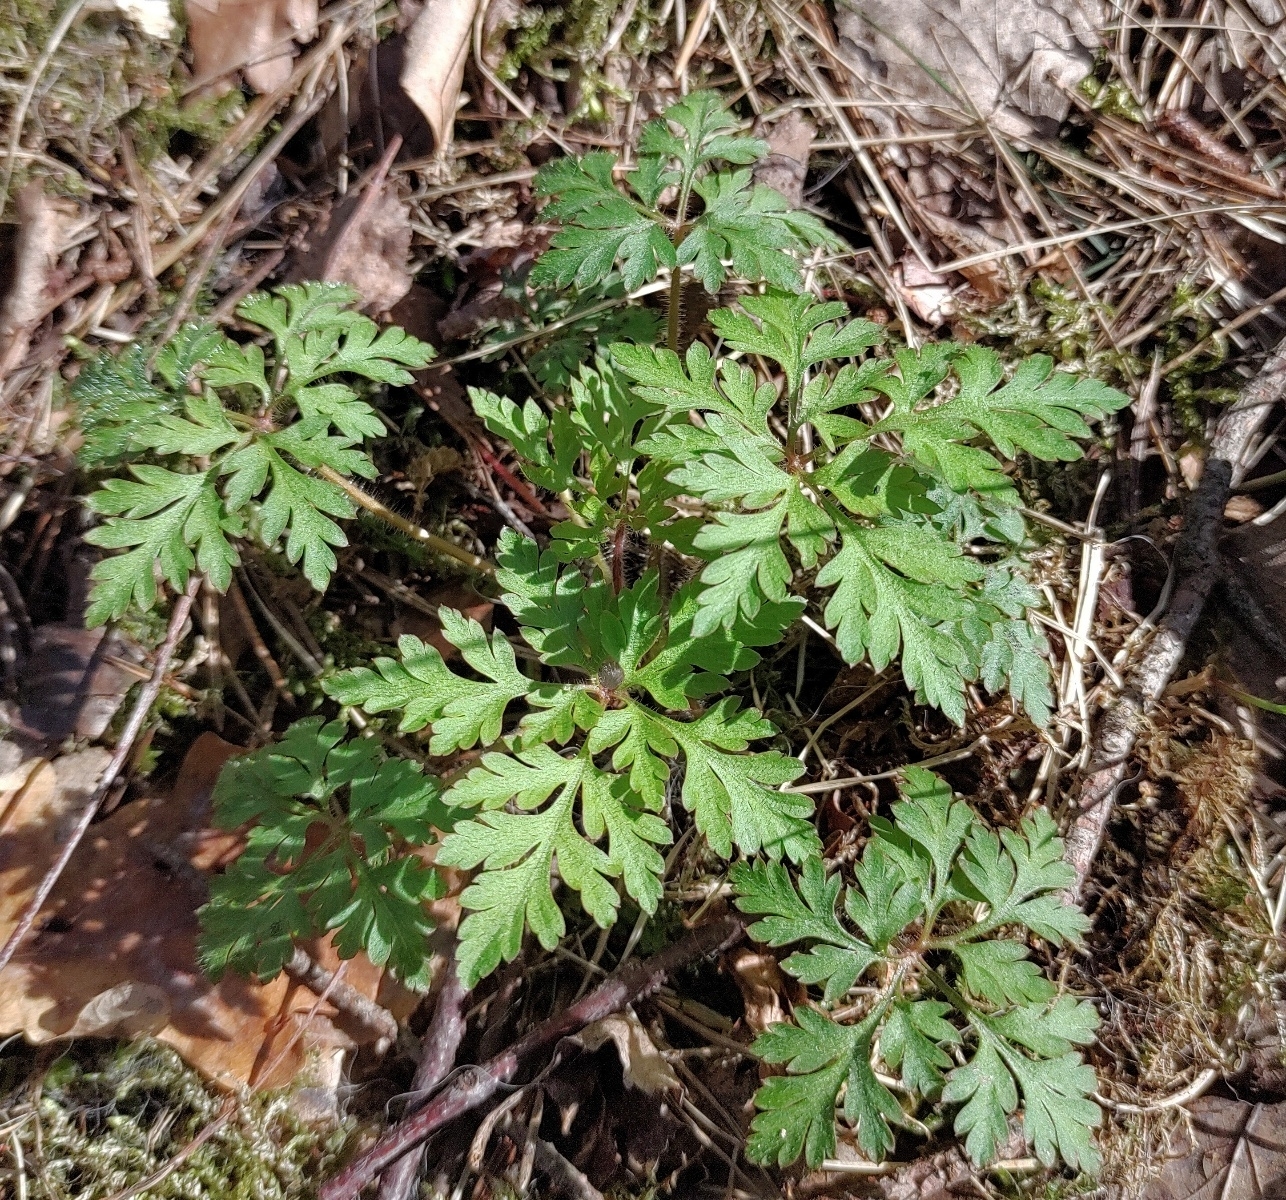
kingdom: Plantae
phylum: Tracheophyta
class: Magnoliopsida
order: Geraniales
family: Geraniaceae
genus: Geranium
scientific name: Geranium robertianum
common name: Herb-robert
